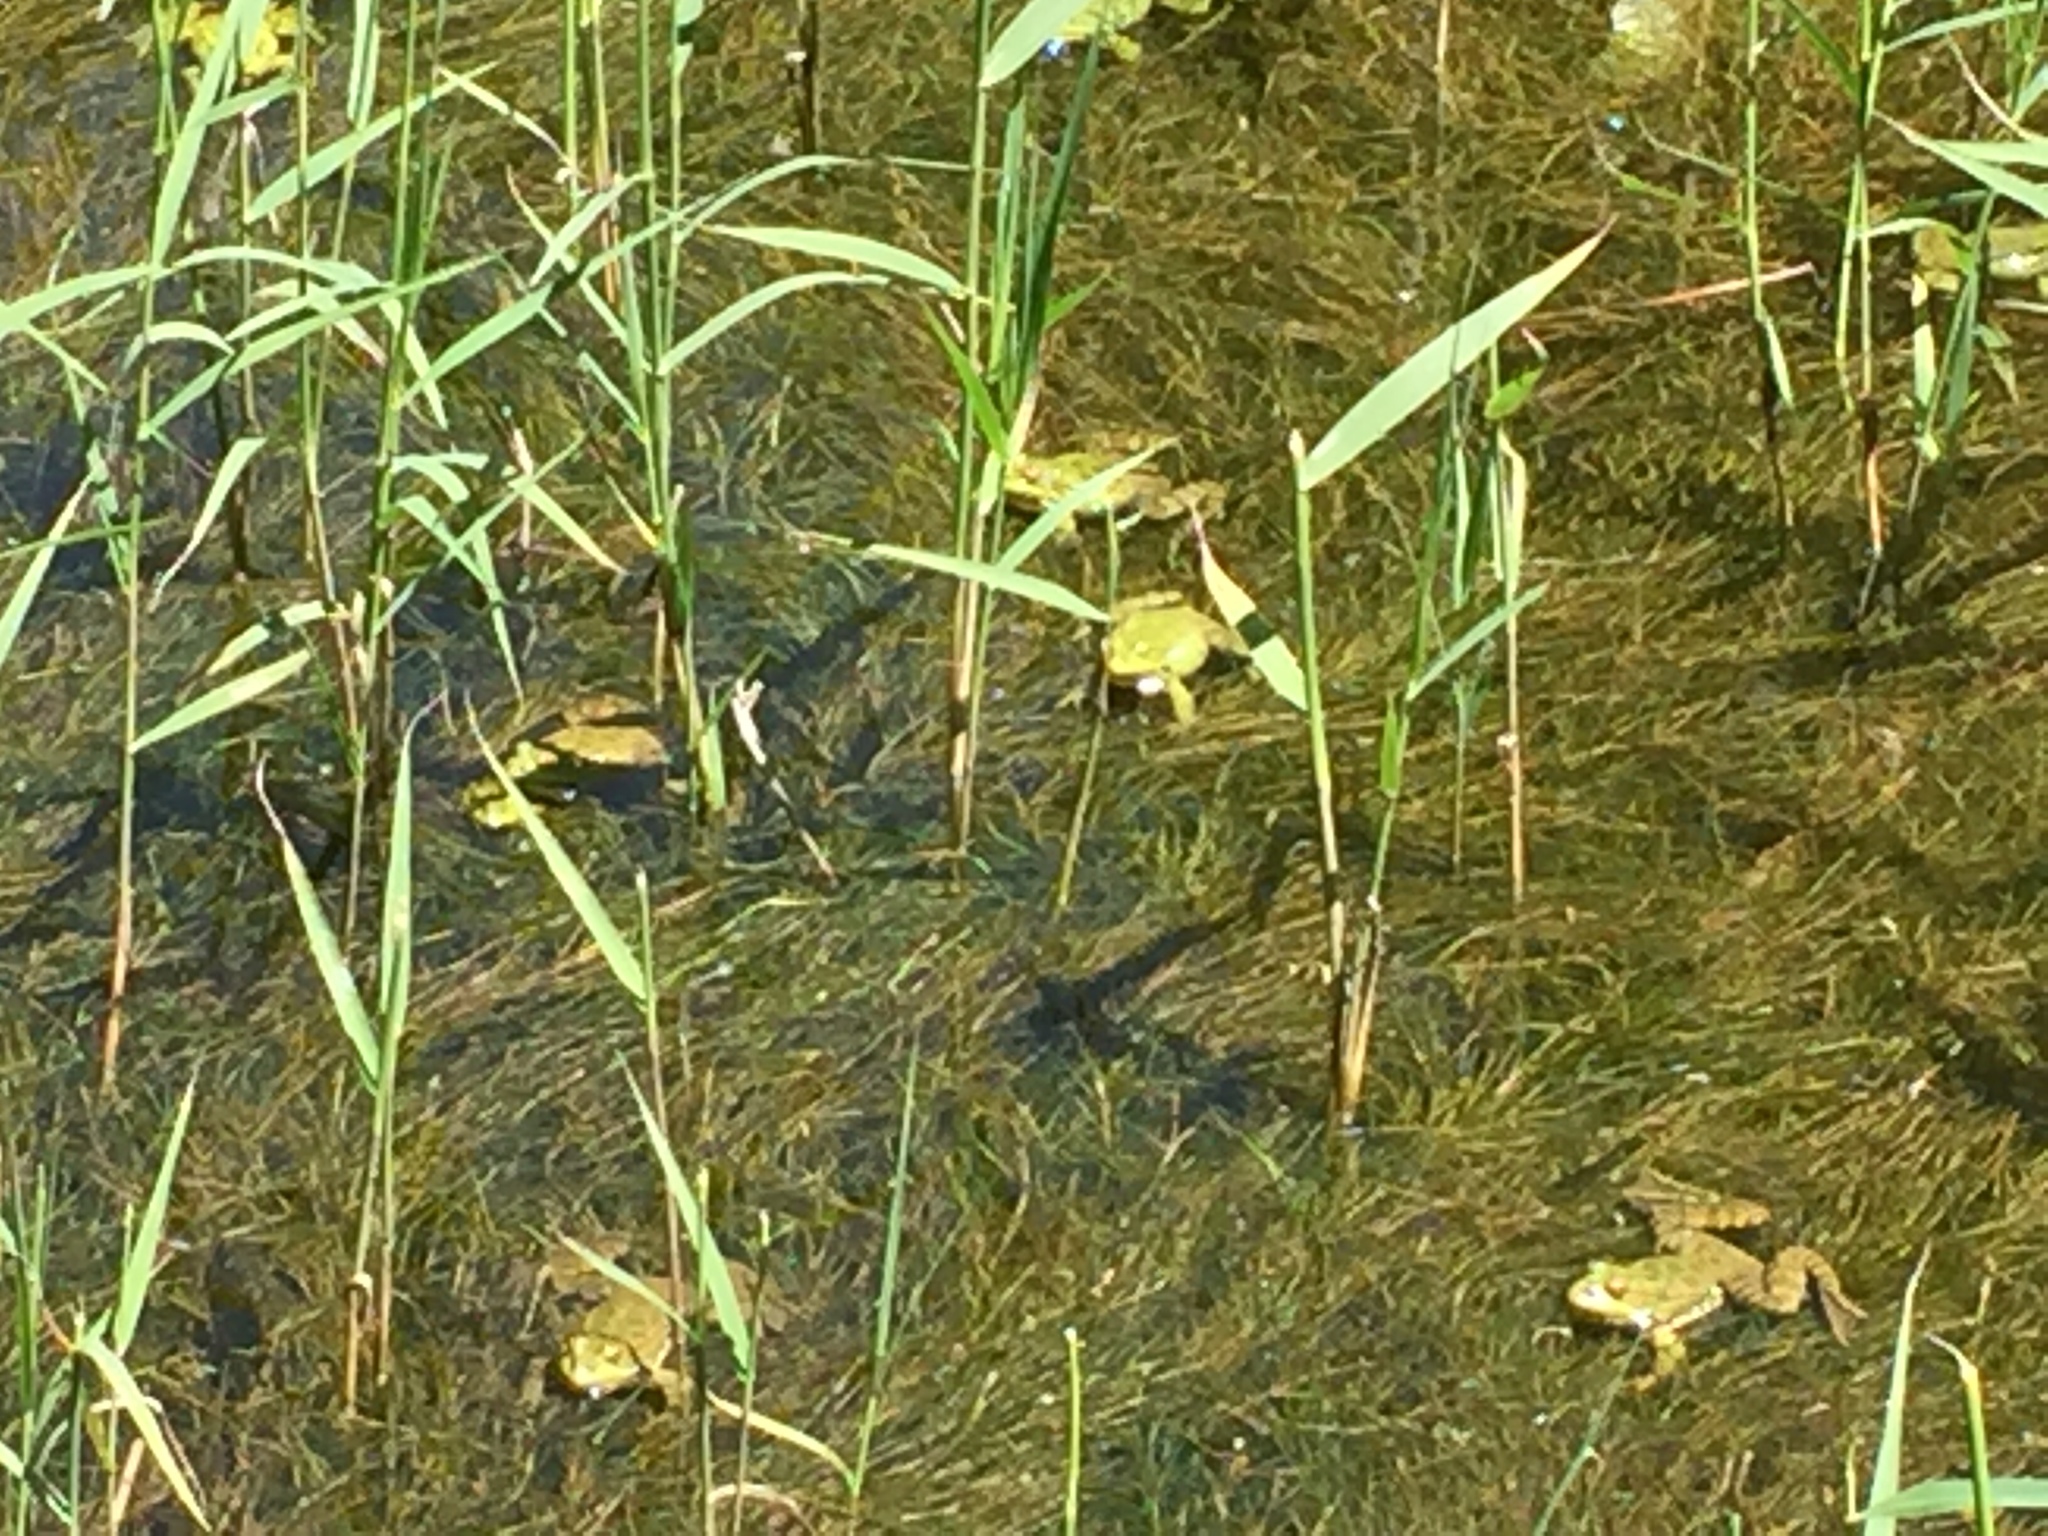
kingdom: Animalia
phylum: Chordata
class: Amphibia
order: Anura
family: Ranidae
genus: Pelophylax
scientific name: Pelophylax ridibundus
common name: Marsh frog
